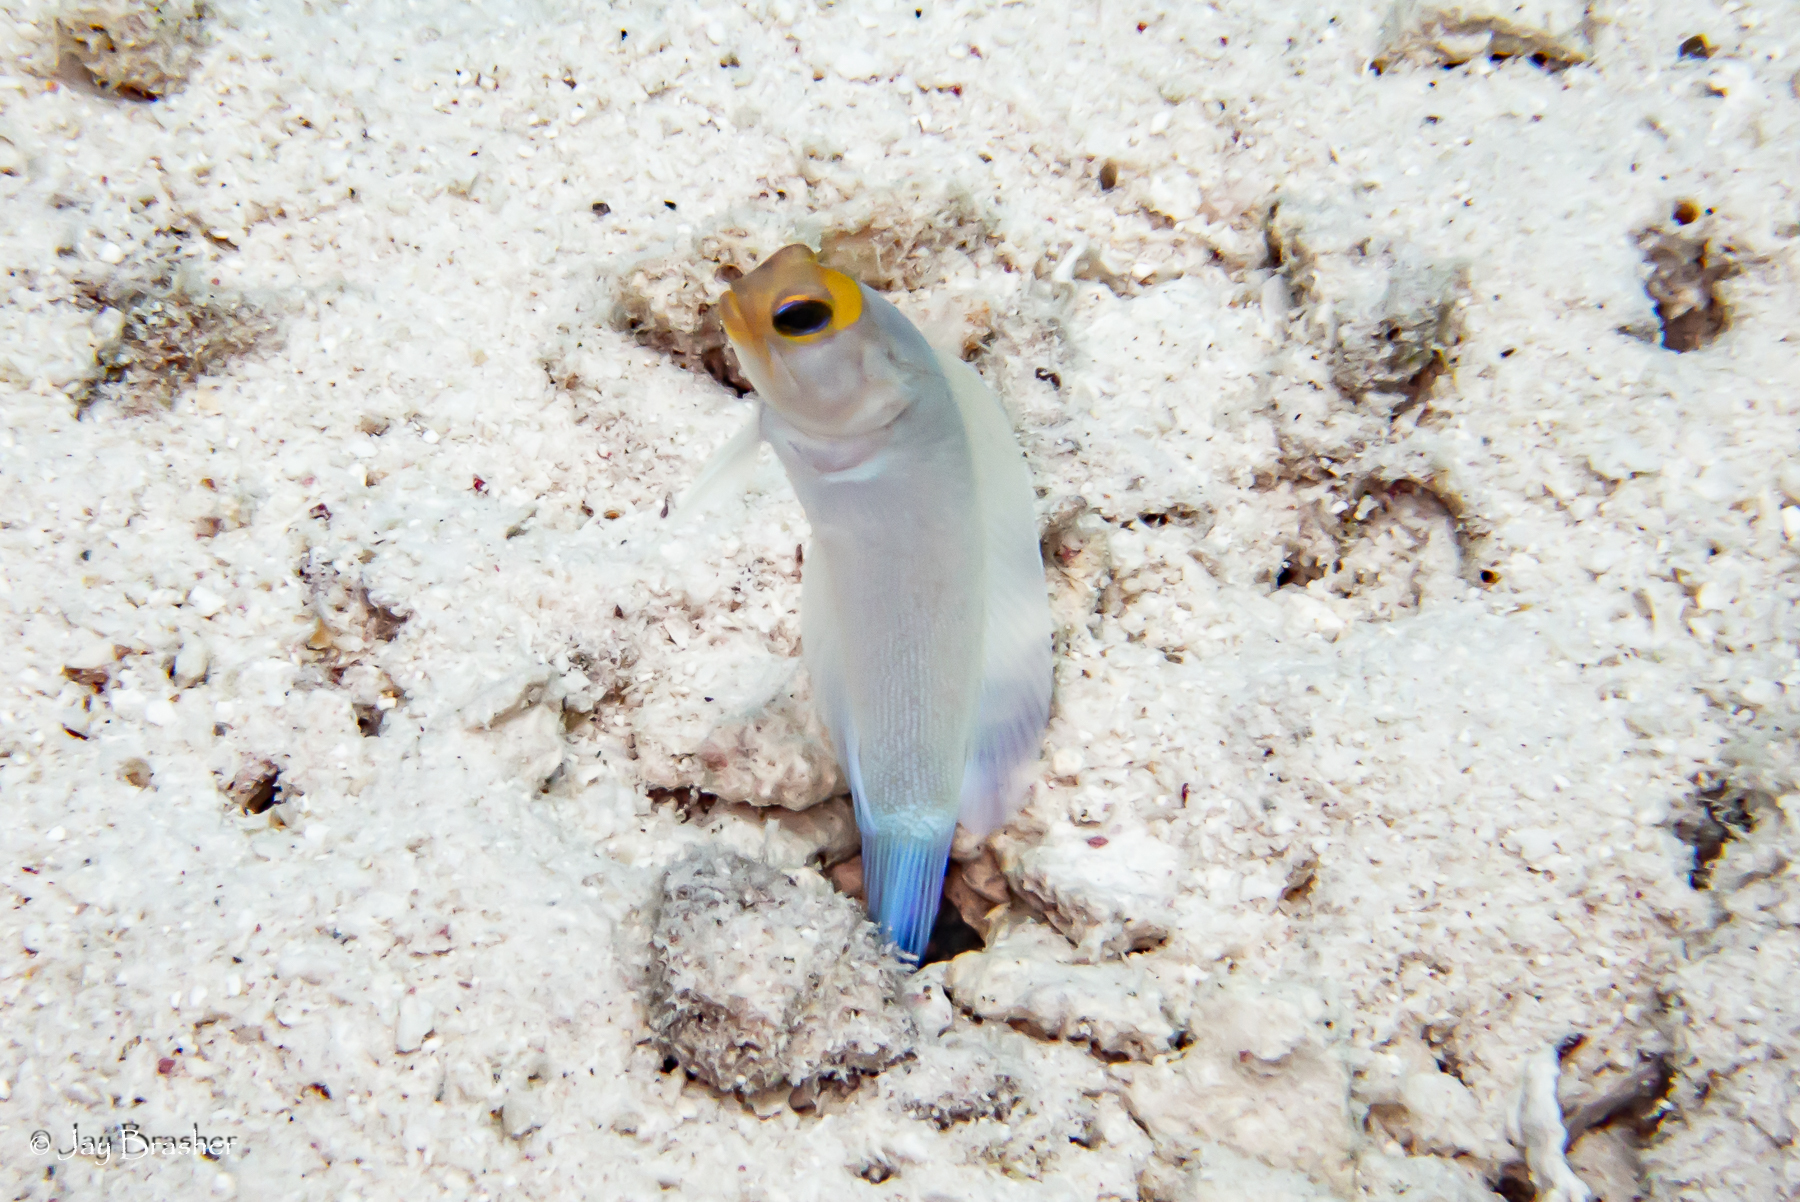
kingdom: Animalia
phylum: Chordata
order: Perciformes
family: Opistognathidae
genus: Opistognathus
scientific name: Opistognathus aurifrons
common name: Yellowhead jawfish
